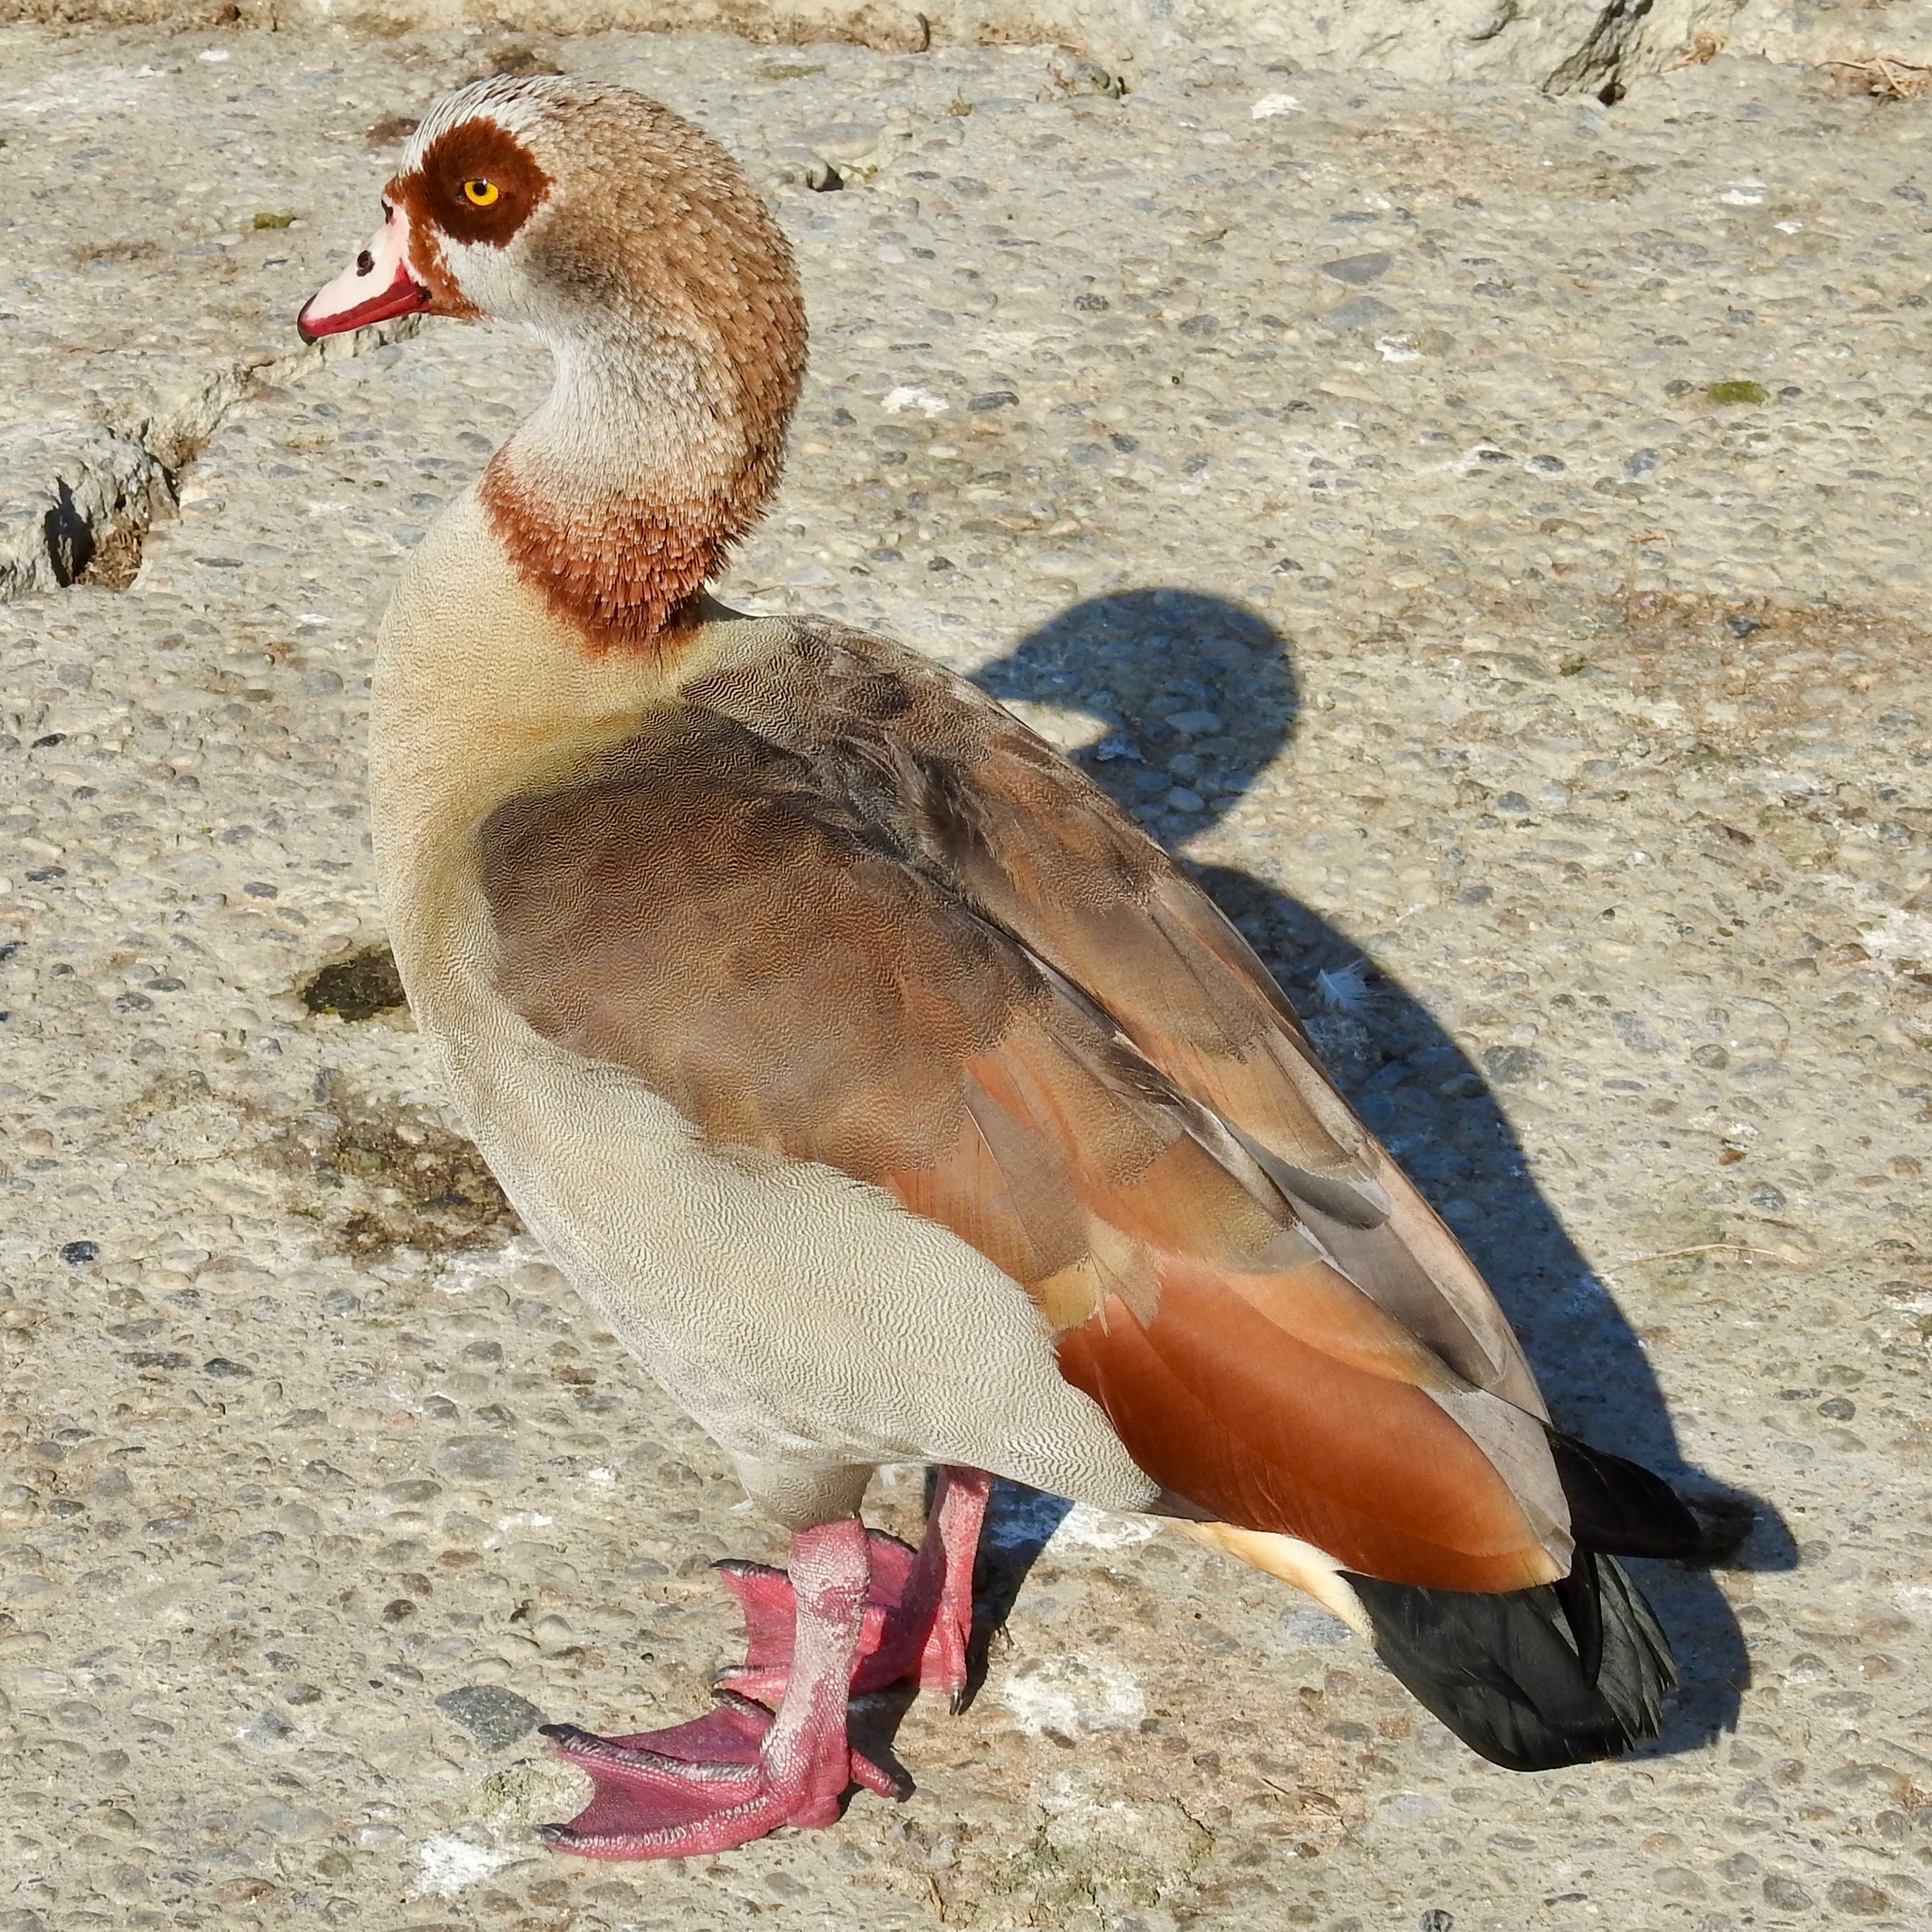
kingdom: Animalia
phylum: Chordata
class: Aves
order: Anseriformes
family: Anatidae
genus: Alopochen
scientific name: Alopochen aegyptiaca
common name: Egyptian goose
